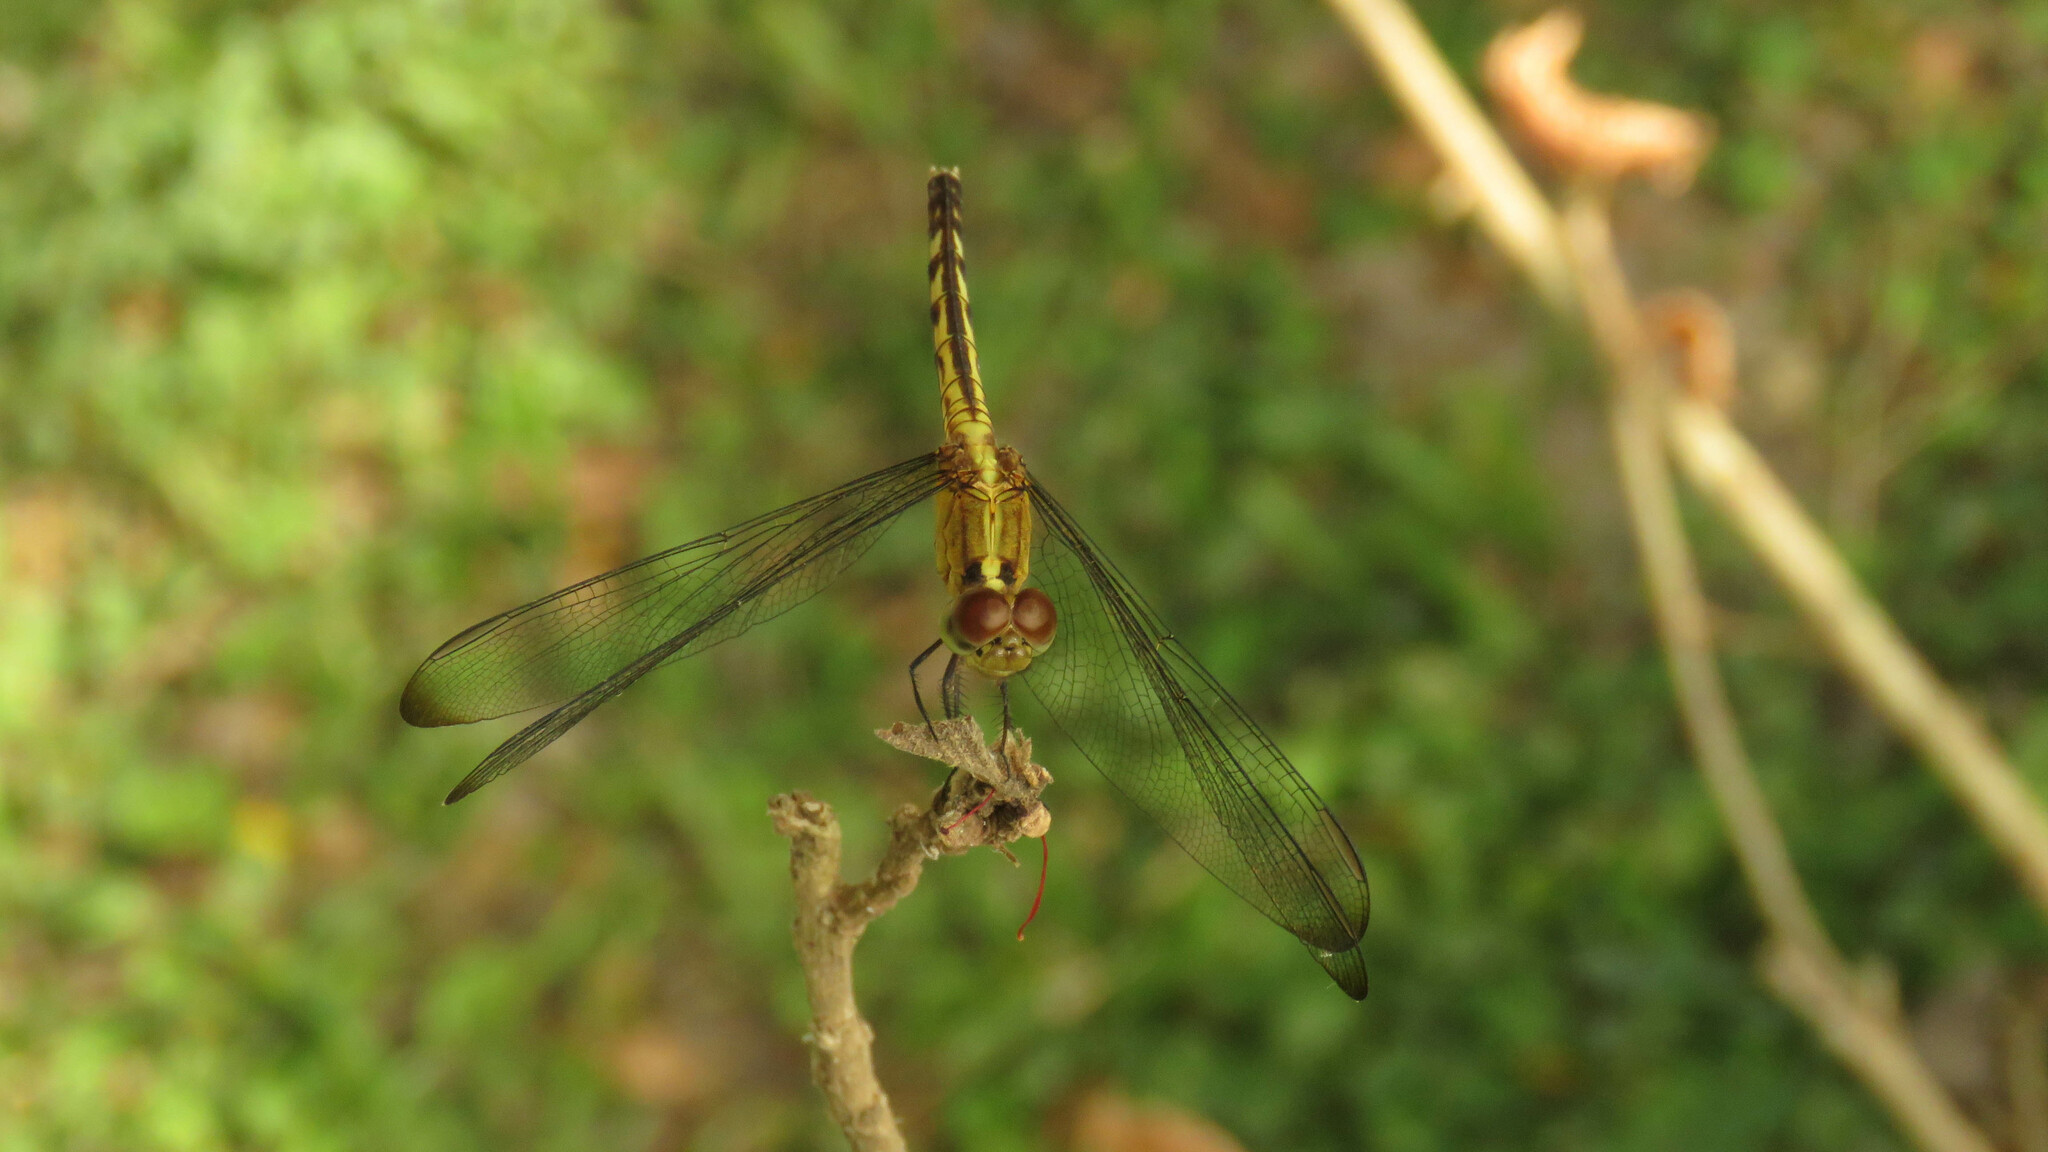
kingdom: Animalia
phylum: Arthropoda
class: Insecta
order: Odonata
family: Libellulidae
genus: Erythrodiplax
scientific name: Erythrodiplax umbrata
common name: Band-winged dragonlet
